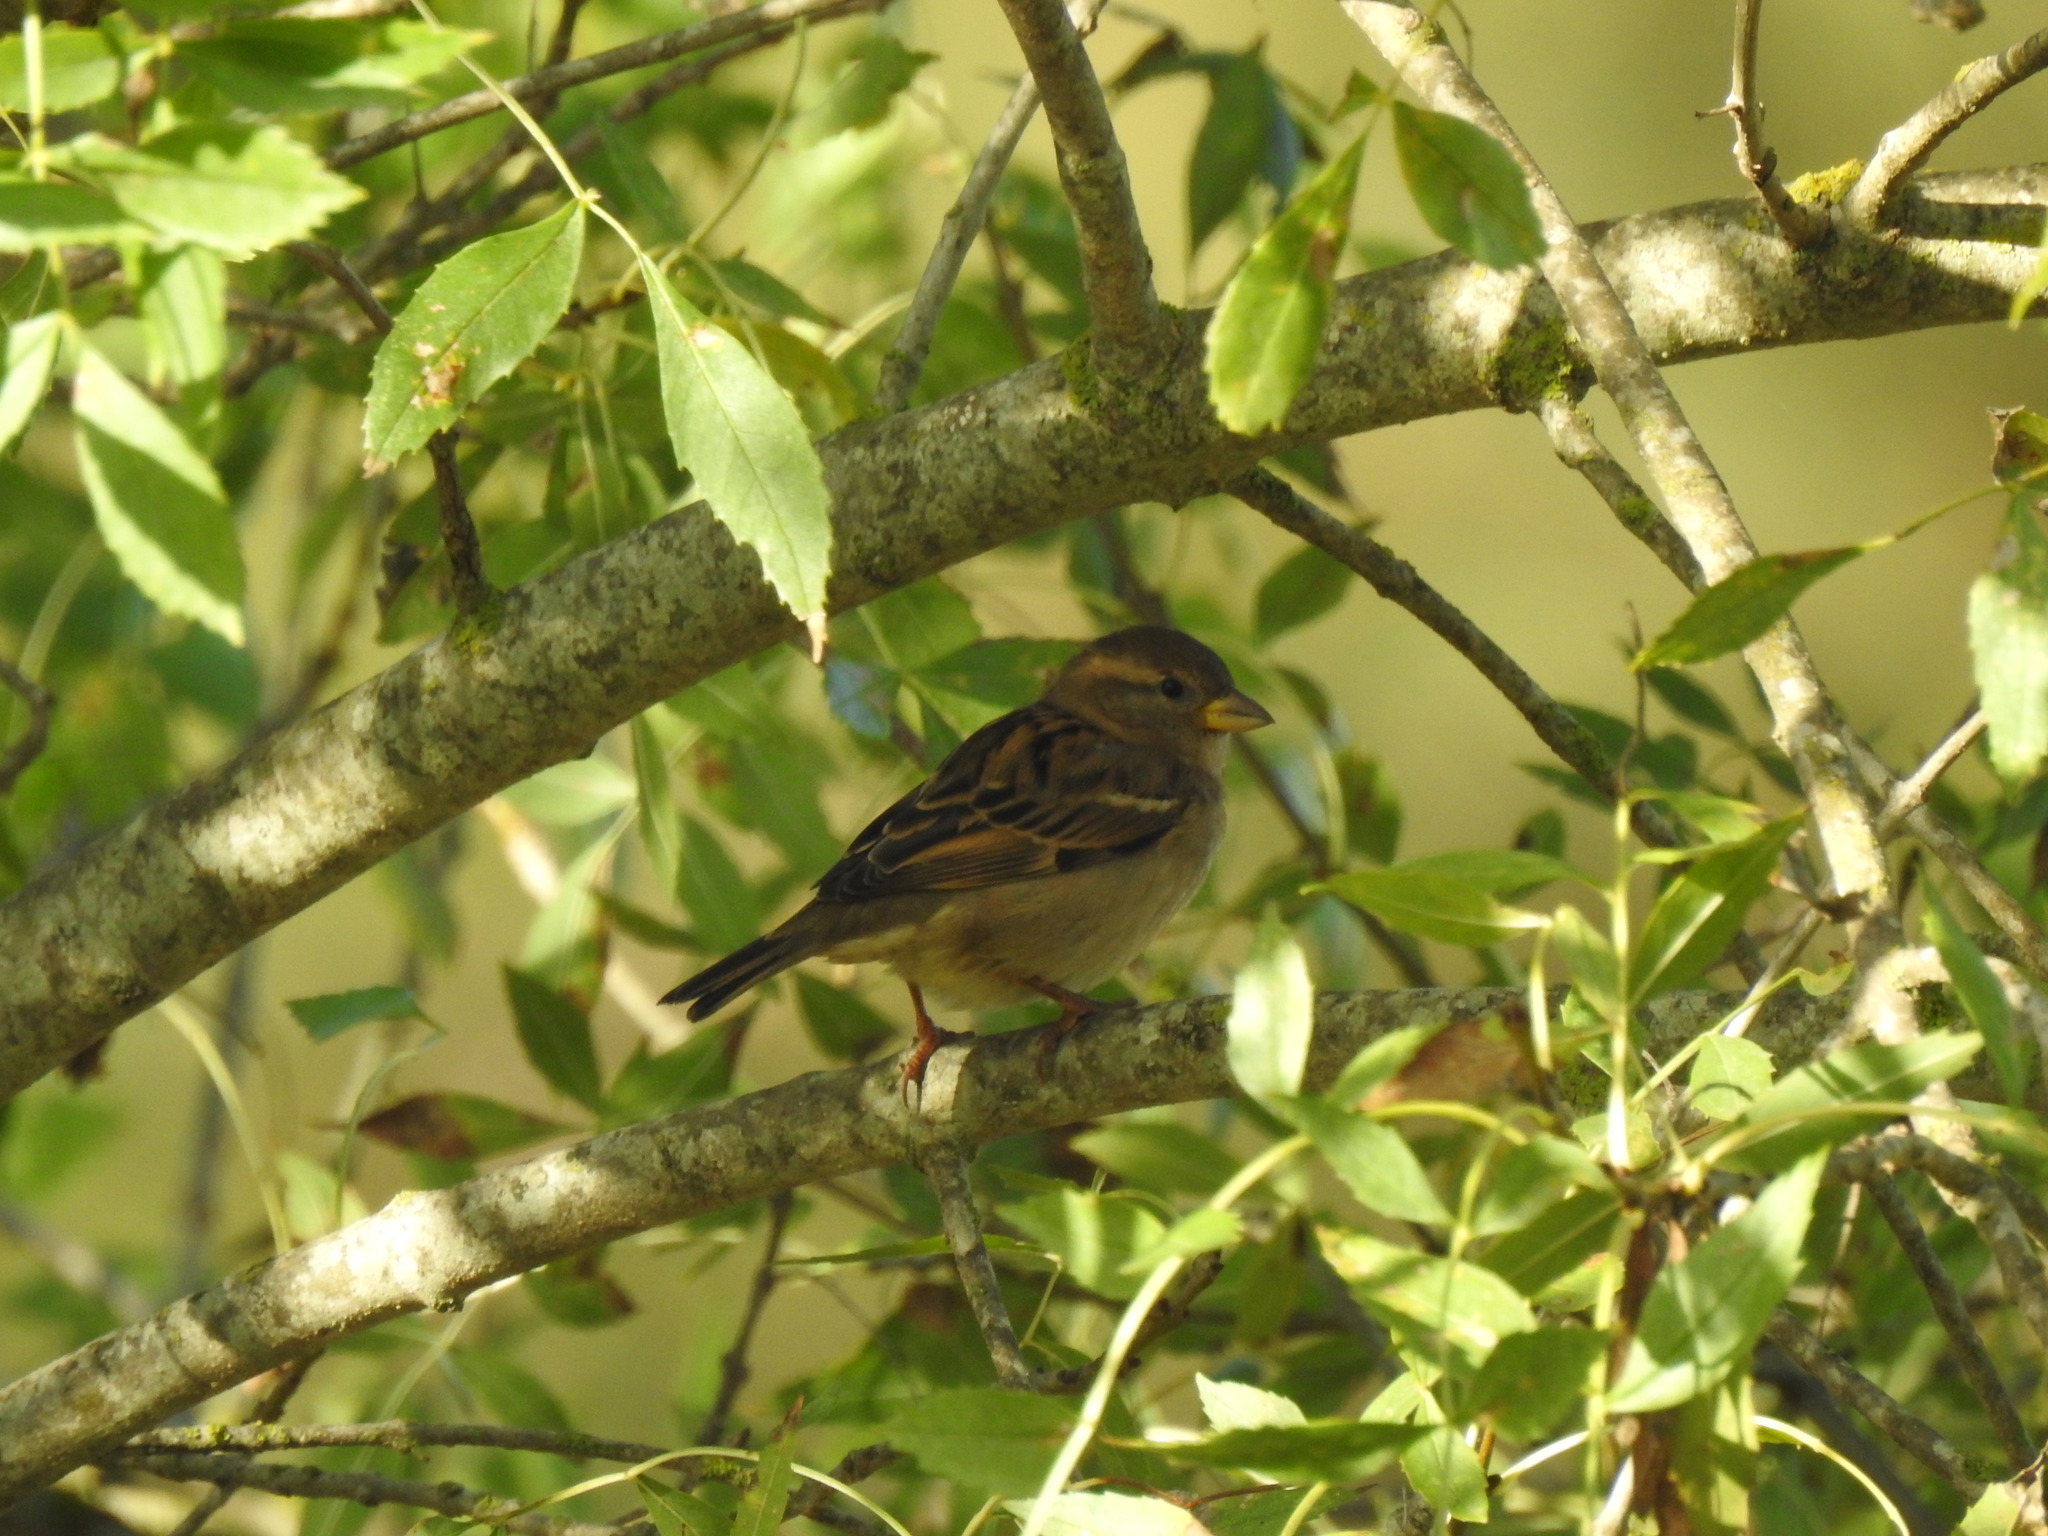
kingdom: Animalia
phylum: Chordata
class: Aves
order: Passeriformes
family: Passeridae
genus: Passer
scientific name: Passer domesticus
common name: House sparrow
